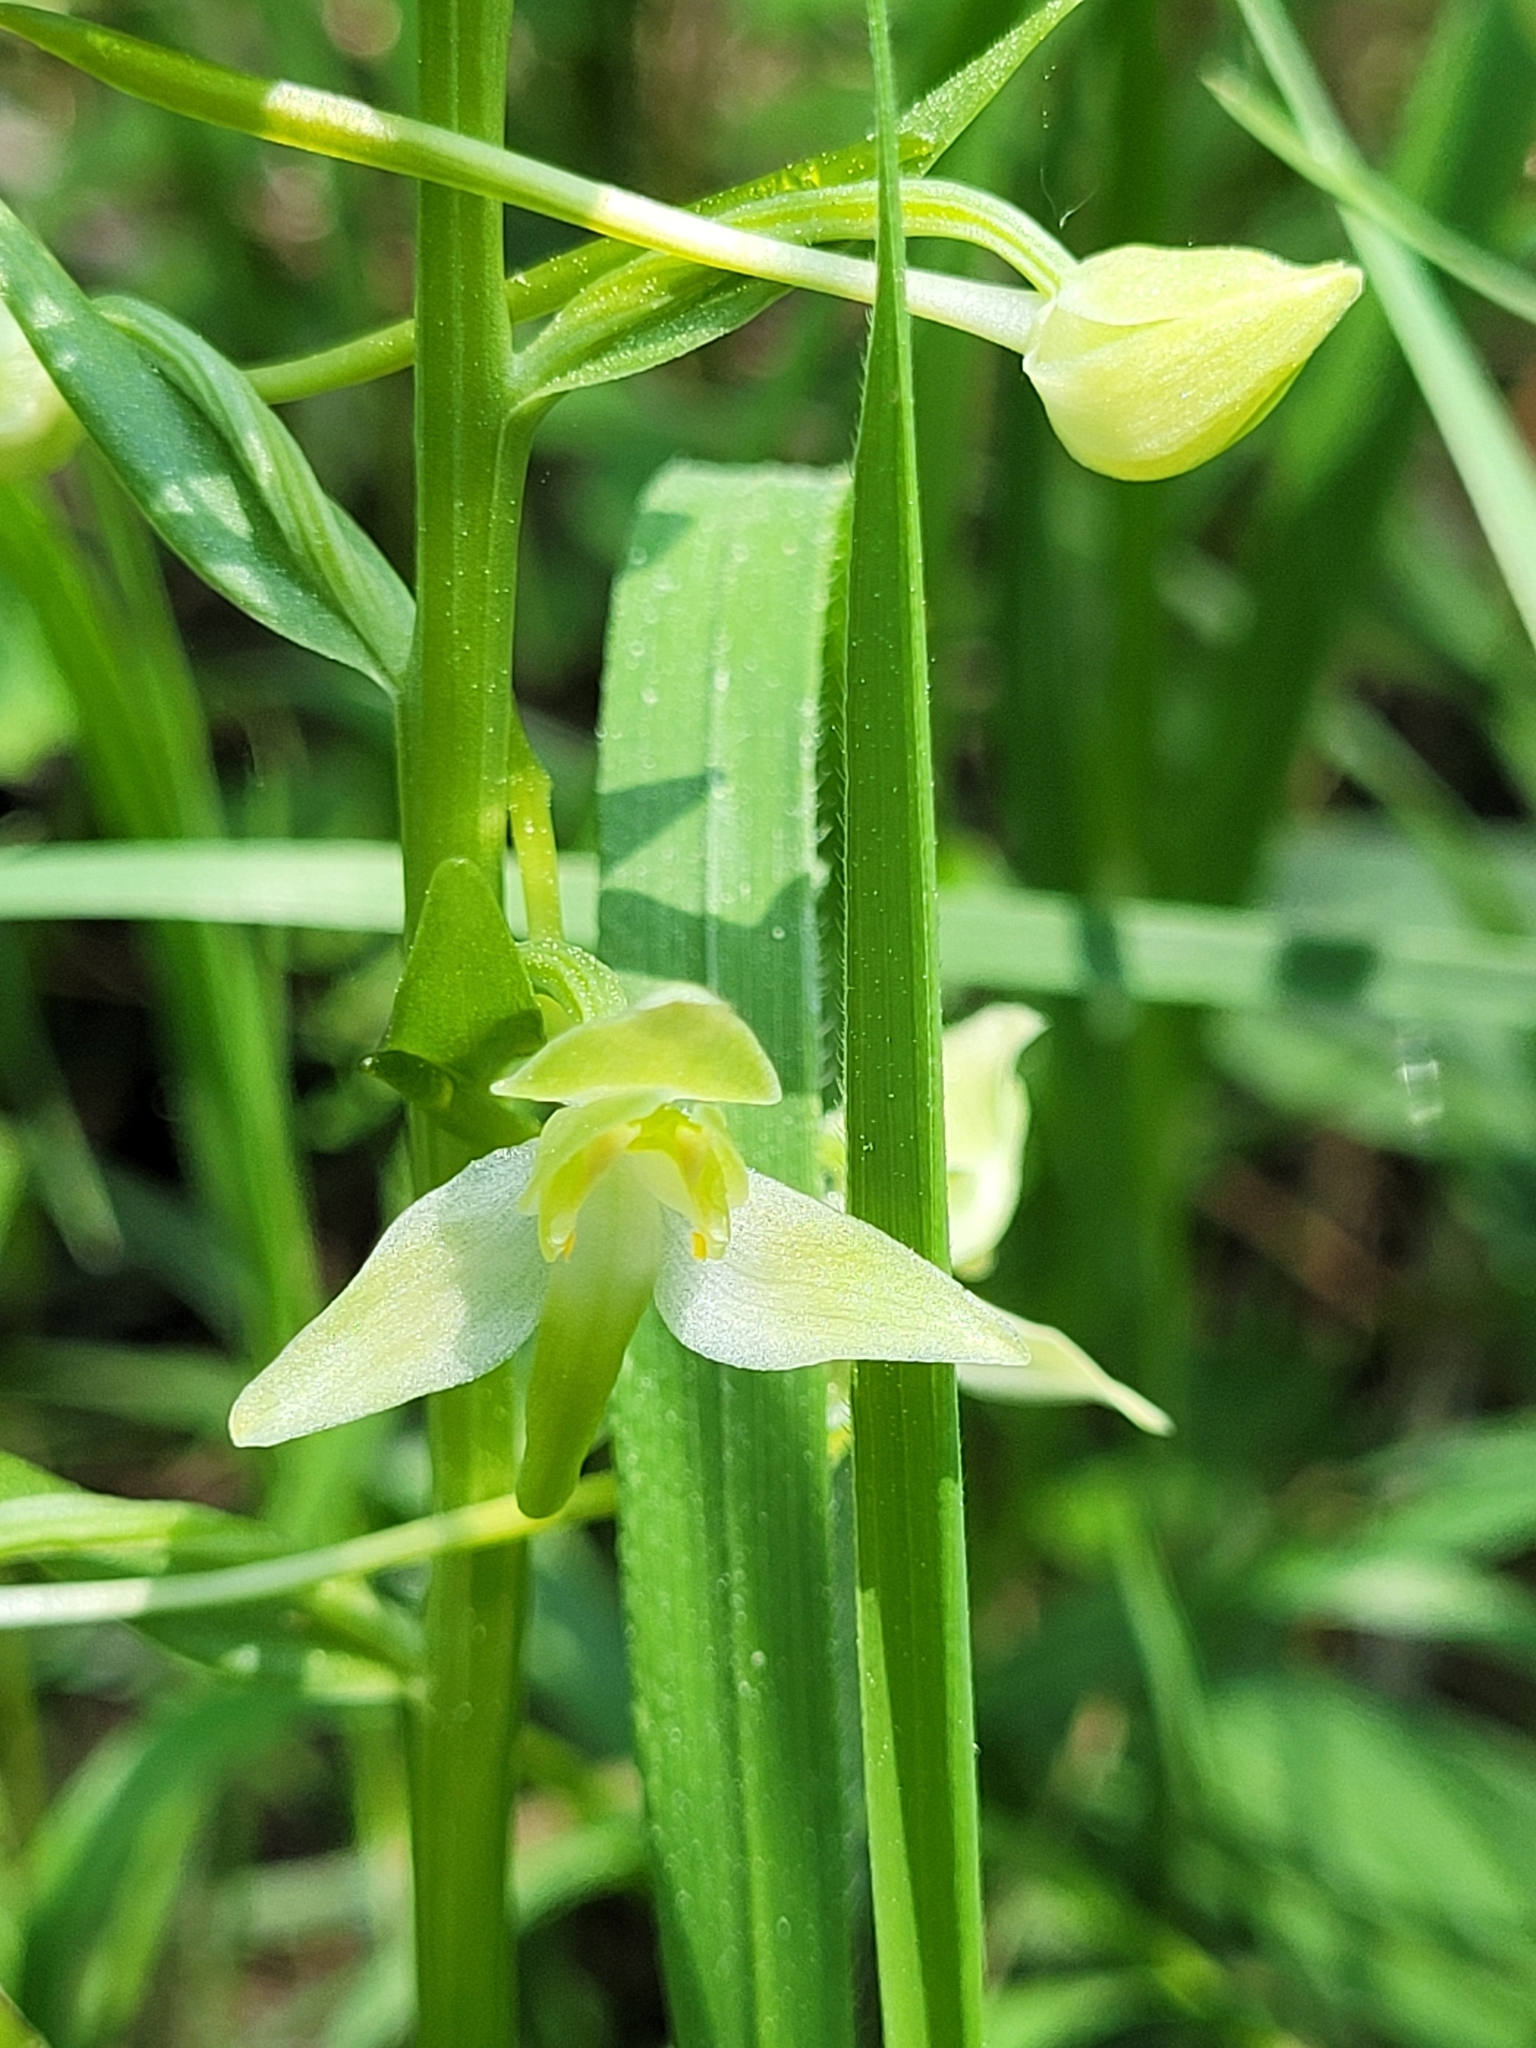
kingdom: Plantae
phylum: Tracheophyta
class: Liliopsida
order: Asparagales
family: Orchidaceae
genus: Platanthera
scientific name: Platanthera chlorantha
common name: Greater butterfly-orchid
